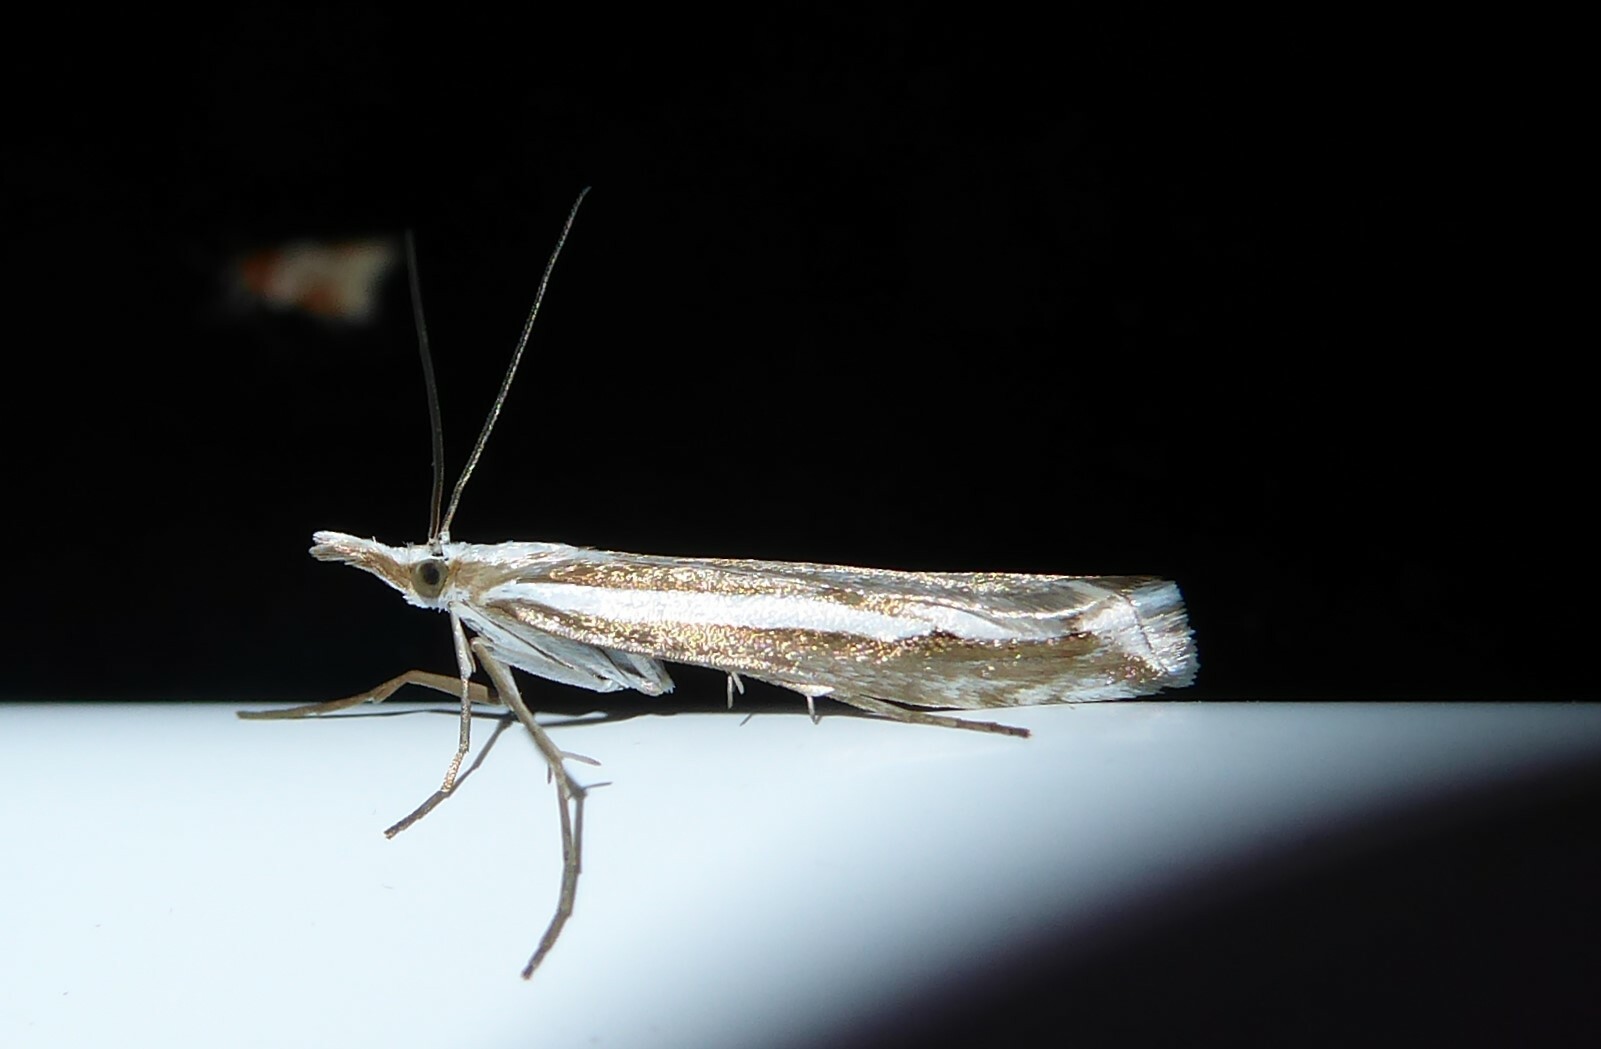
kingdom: Animalia
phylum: Arthropoda
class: Insecta
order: Lepidoptera
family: Crambidae
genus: Orocrambus
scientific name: Orocrambus vittellus
